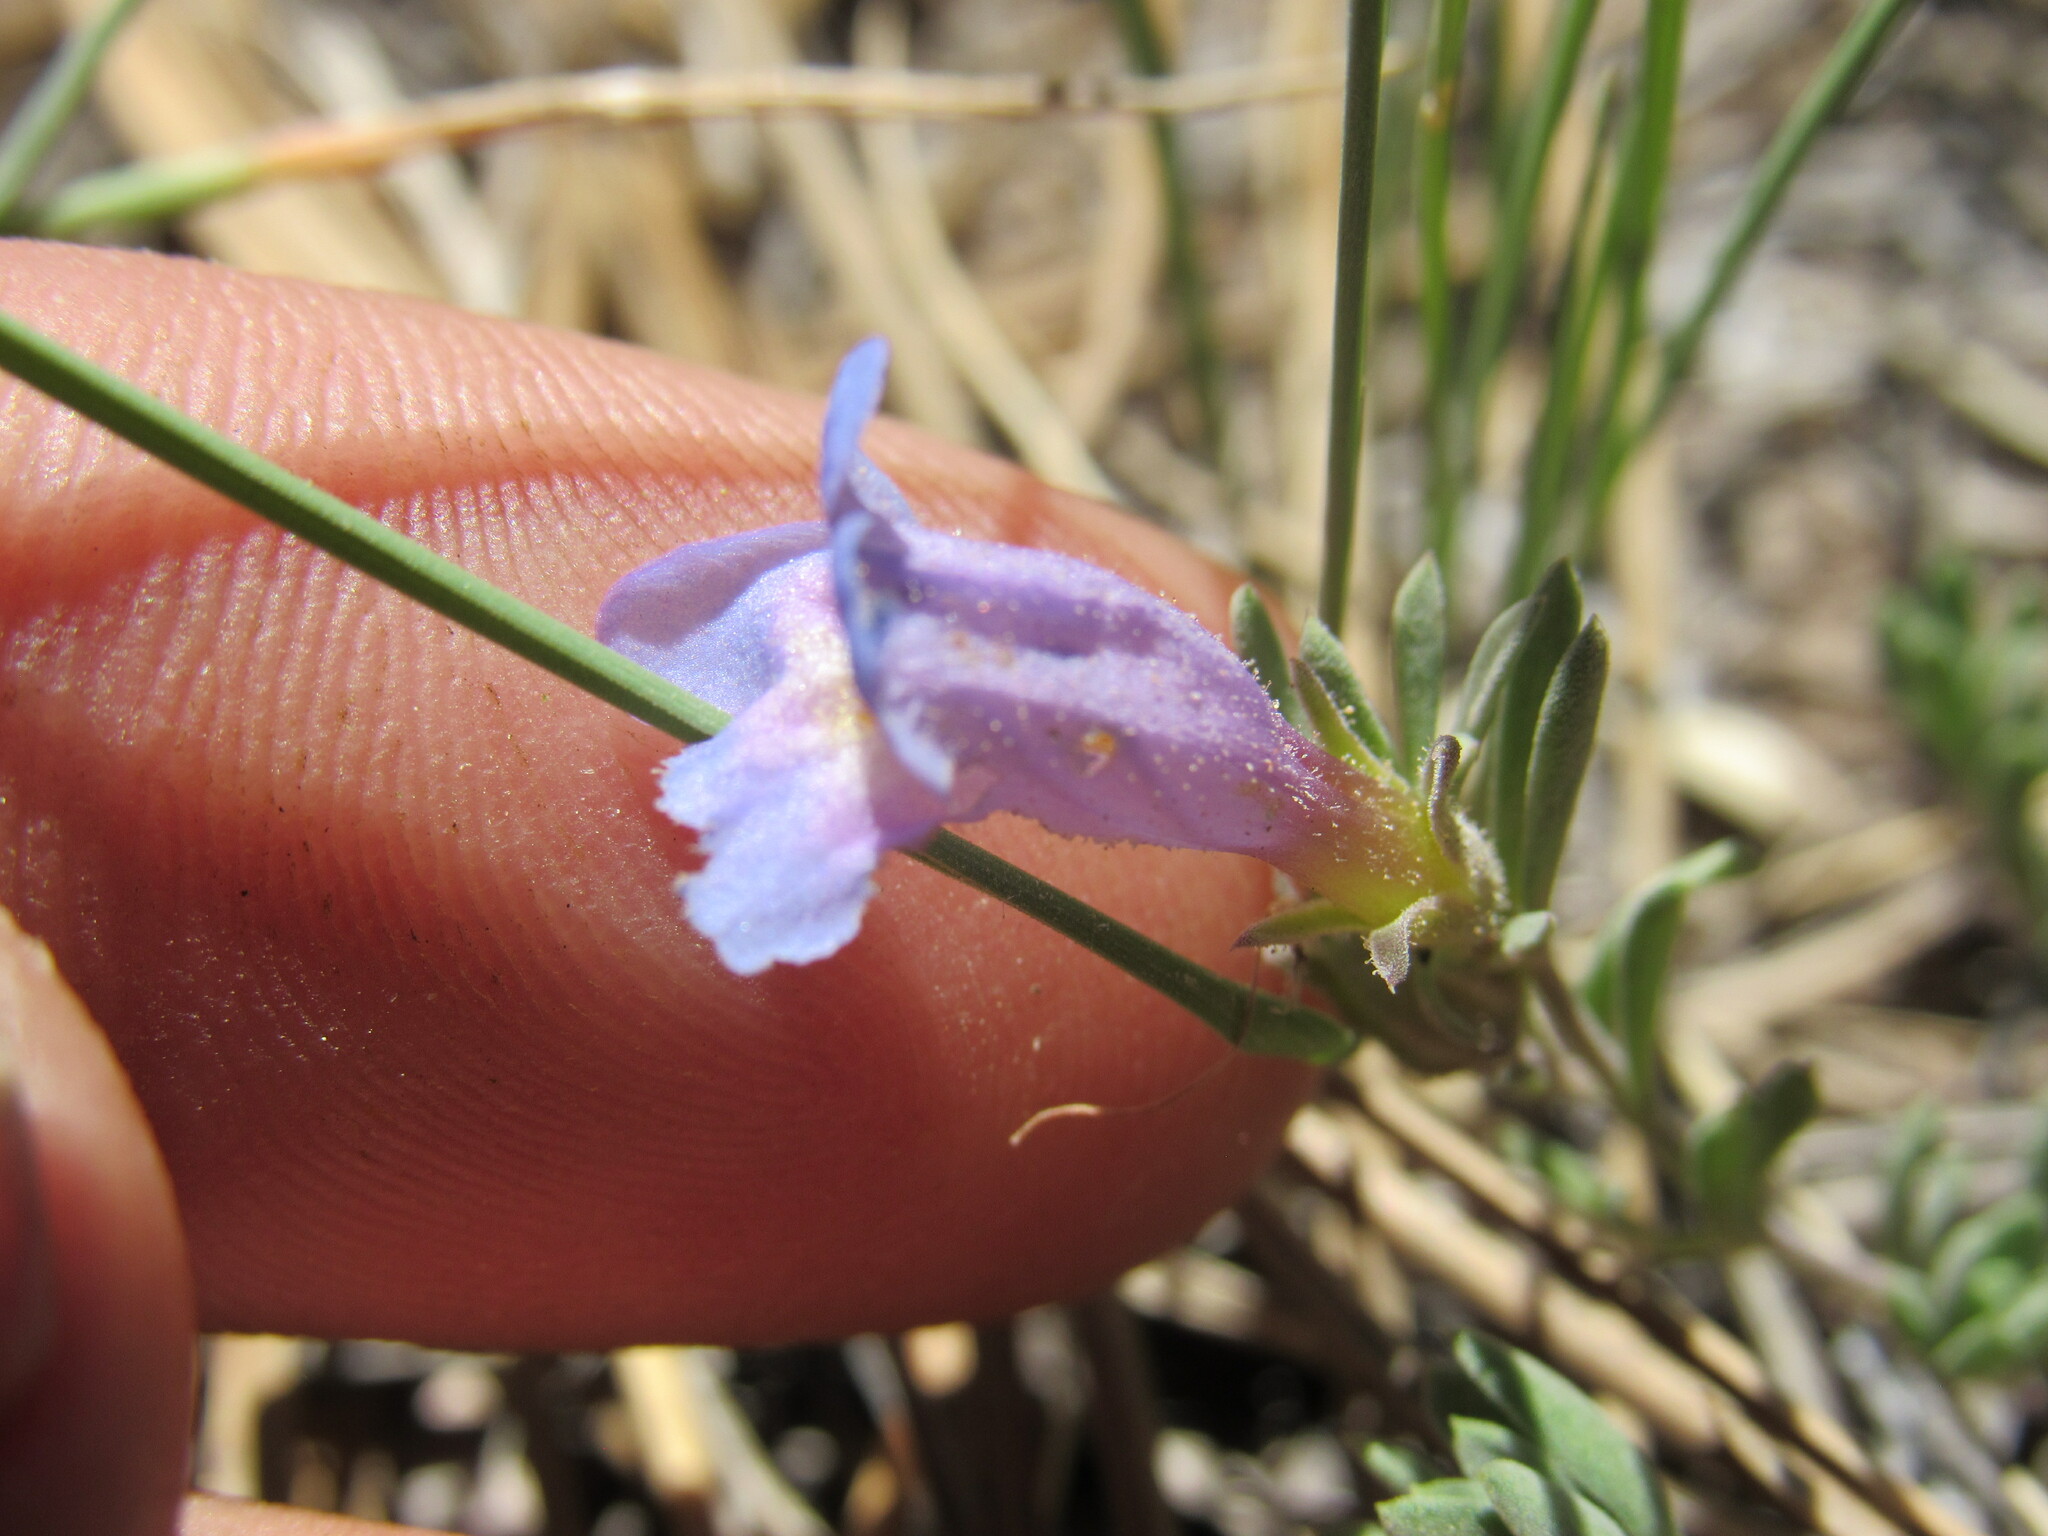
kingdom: Plantae
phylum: Tracheophyta
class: Magnoliopsida
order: Lamiales
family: Plantaginaceae
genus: Penstemon
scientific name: Penstemon caespitosus
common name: Mat penstemon
